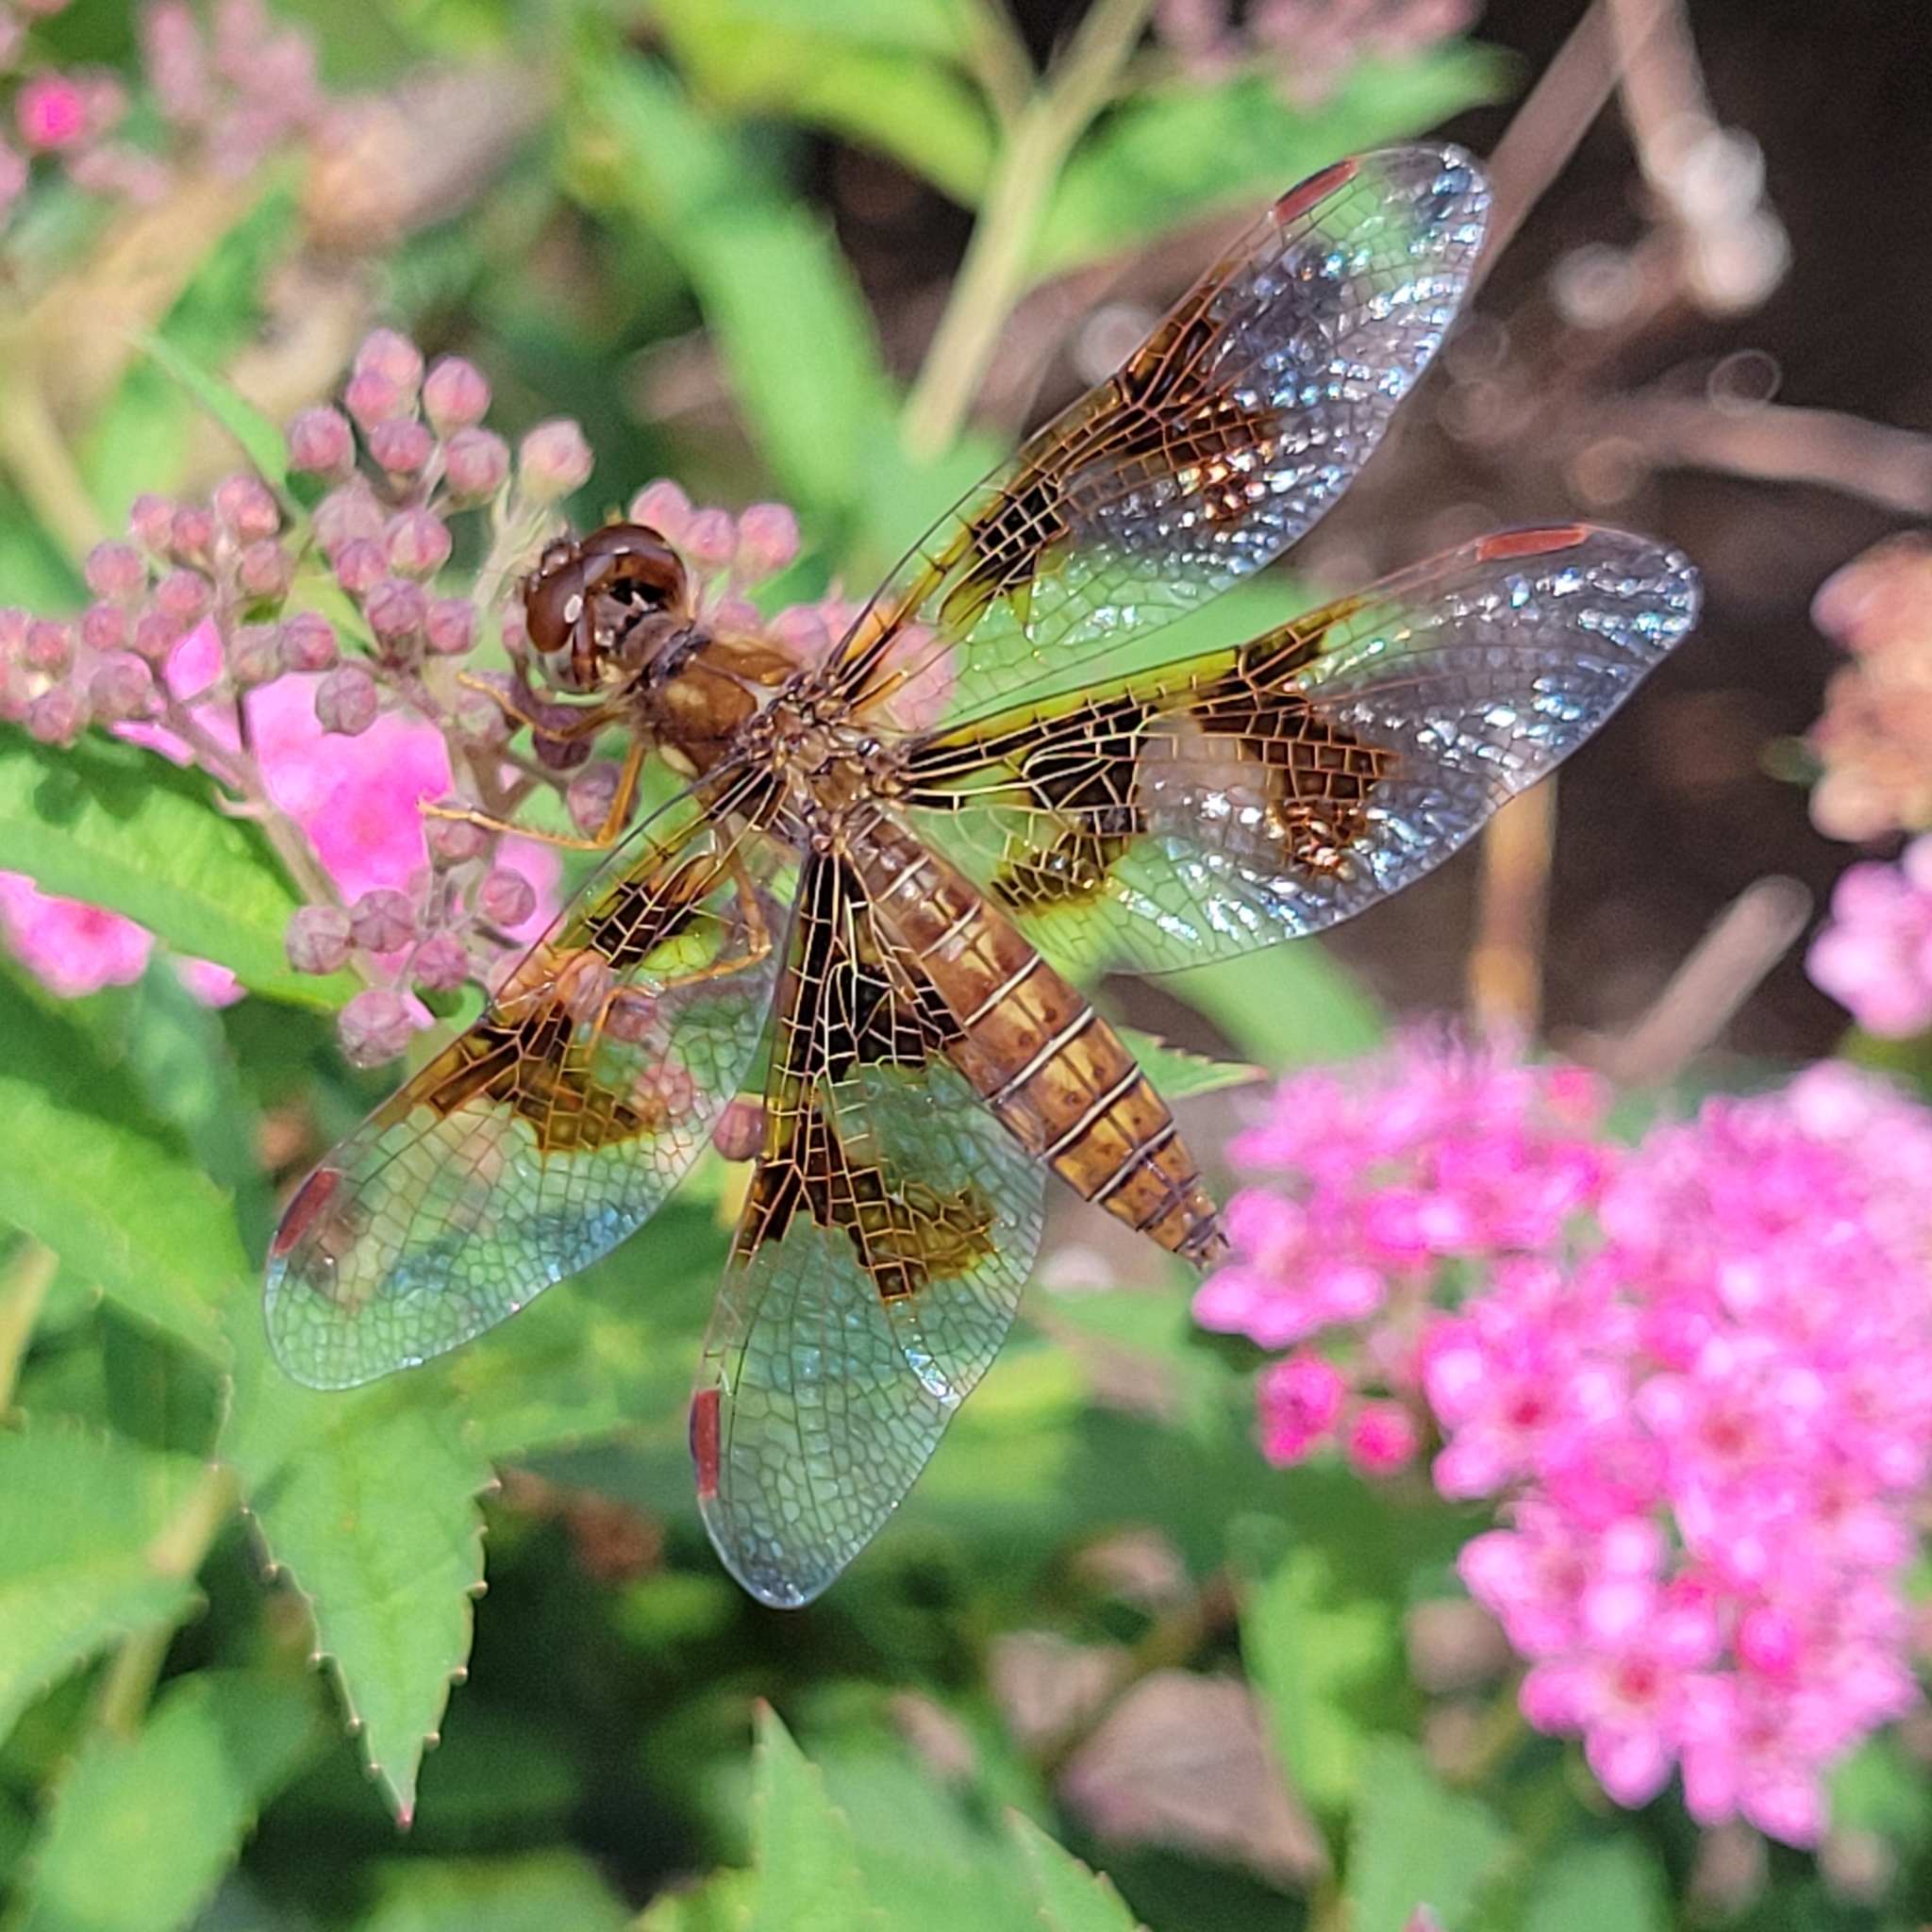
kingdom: Animalia
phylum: Arthropoda
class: Insecta
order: Odonata
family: Libellulidae
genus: Perithemis
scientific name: Perithemis tenera
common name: Eastern amberwing
